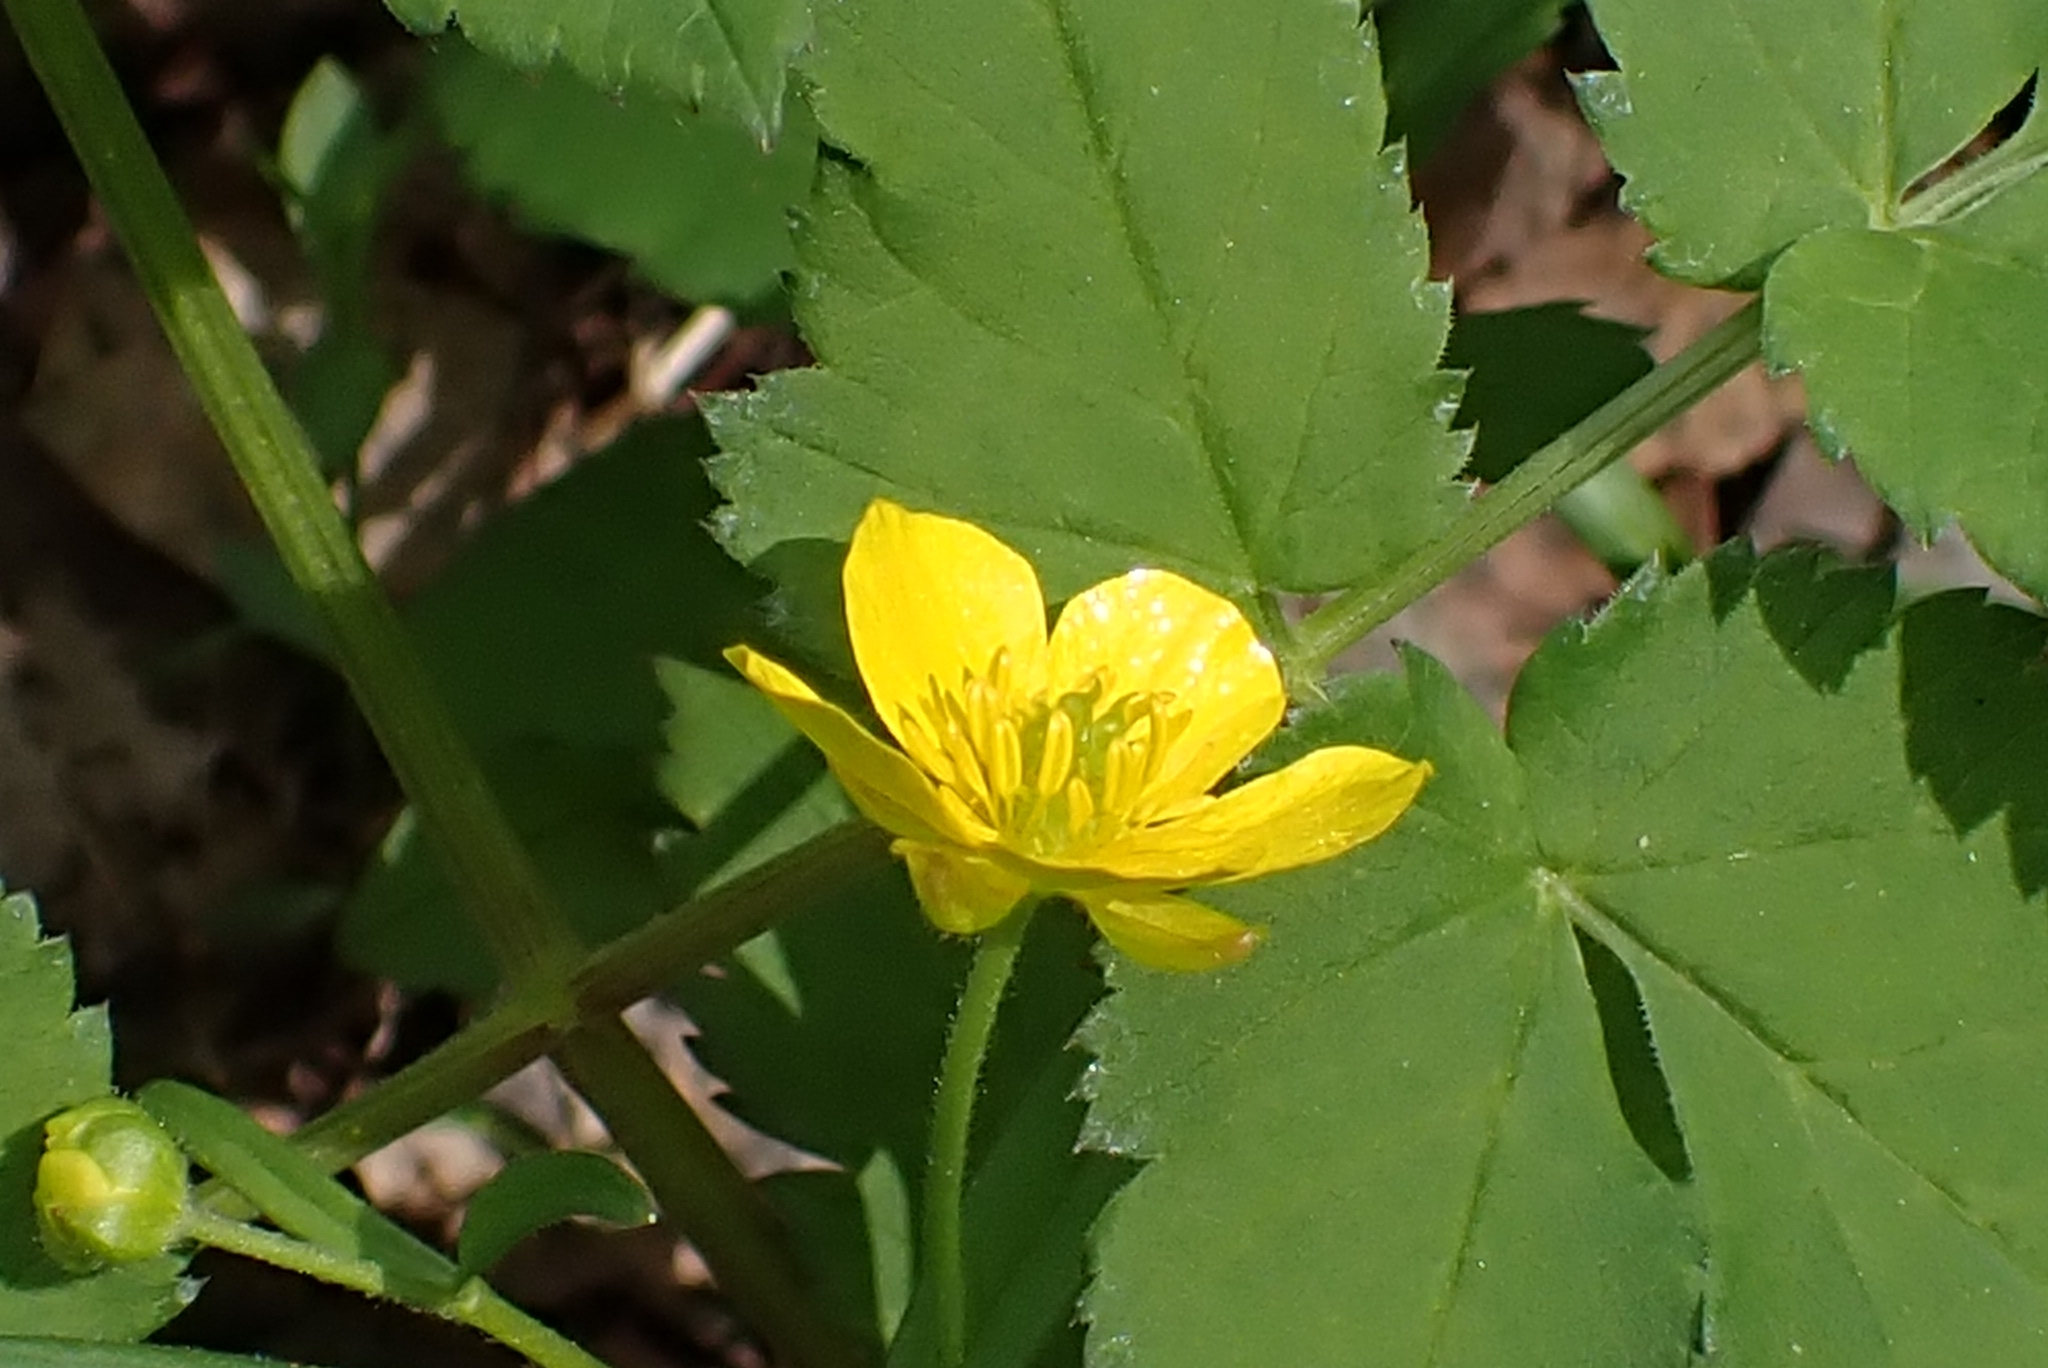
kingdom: Plantae
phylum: Tracheophyta
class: Magnoliopsida
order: Ranunculales
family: Ranunculaceae
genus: Ranunculus
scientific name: Ranunculus monophyllus
